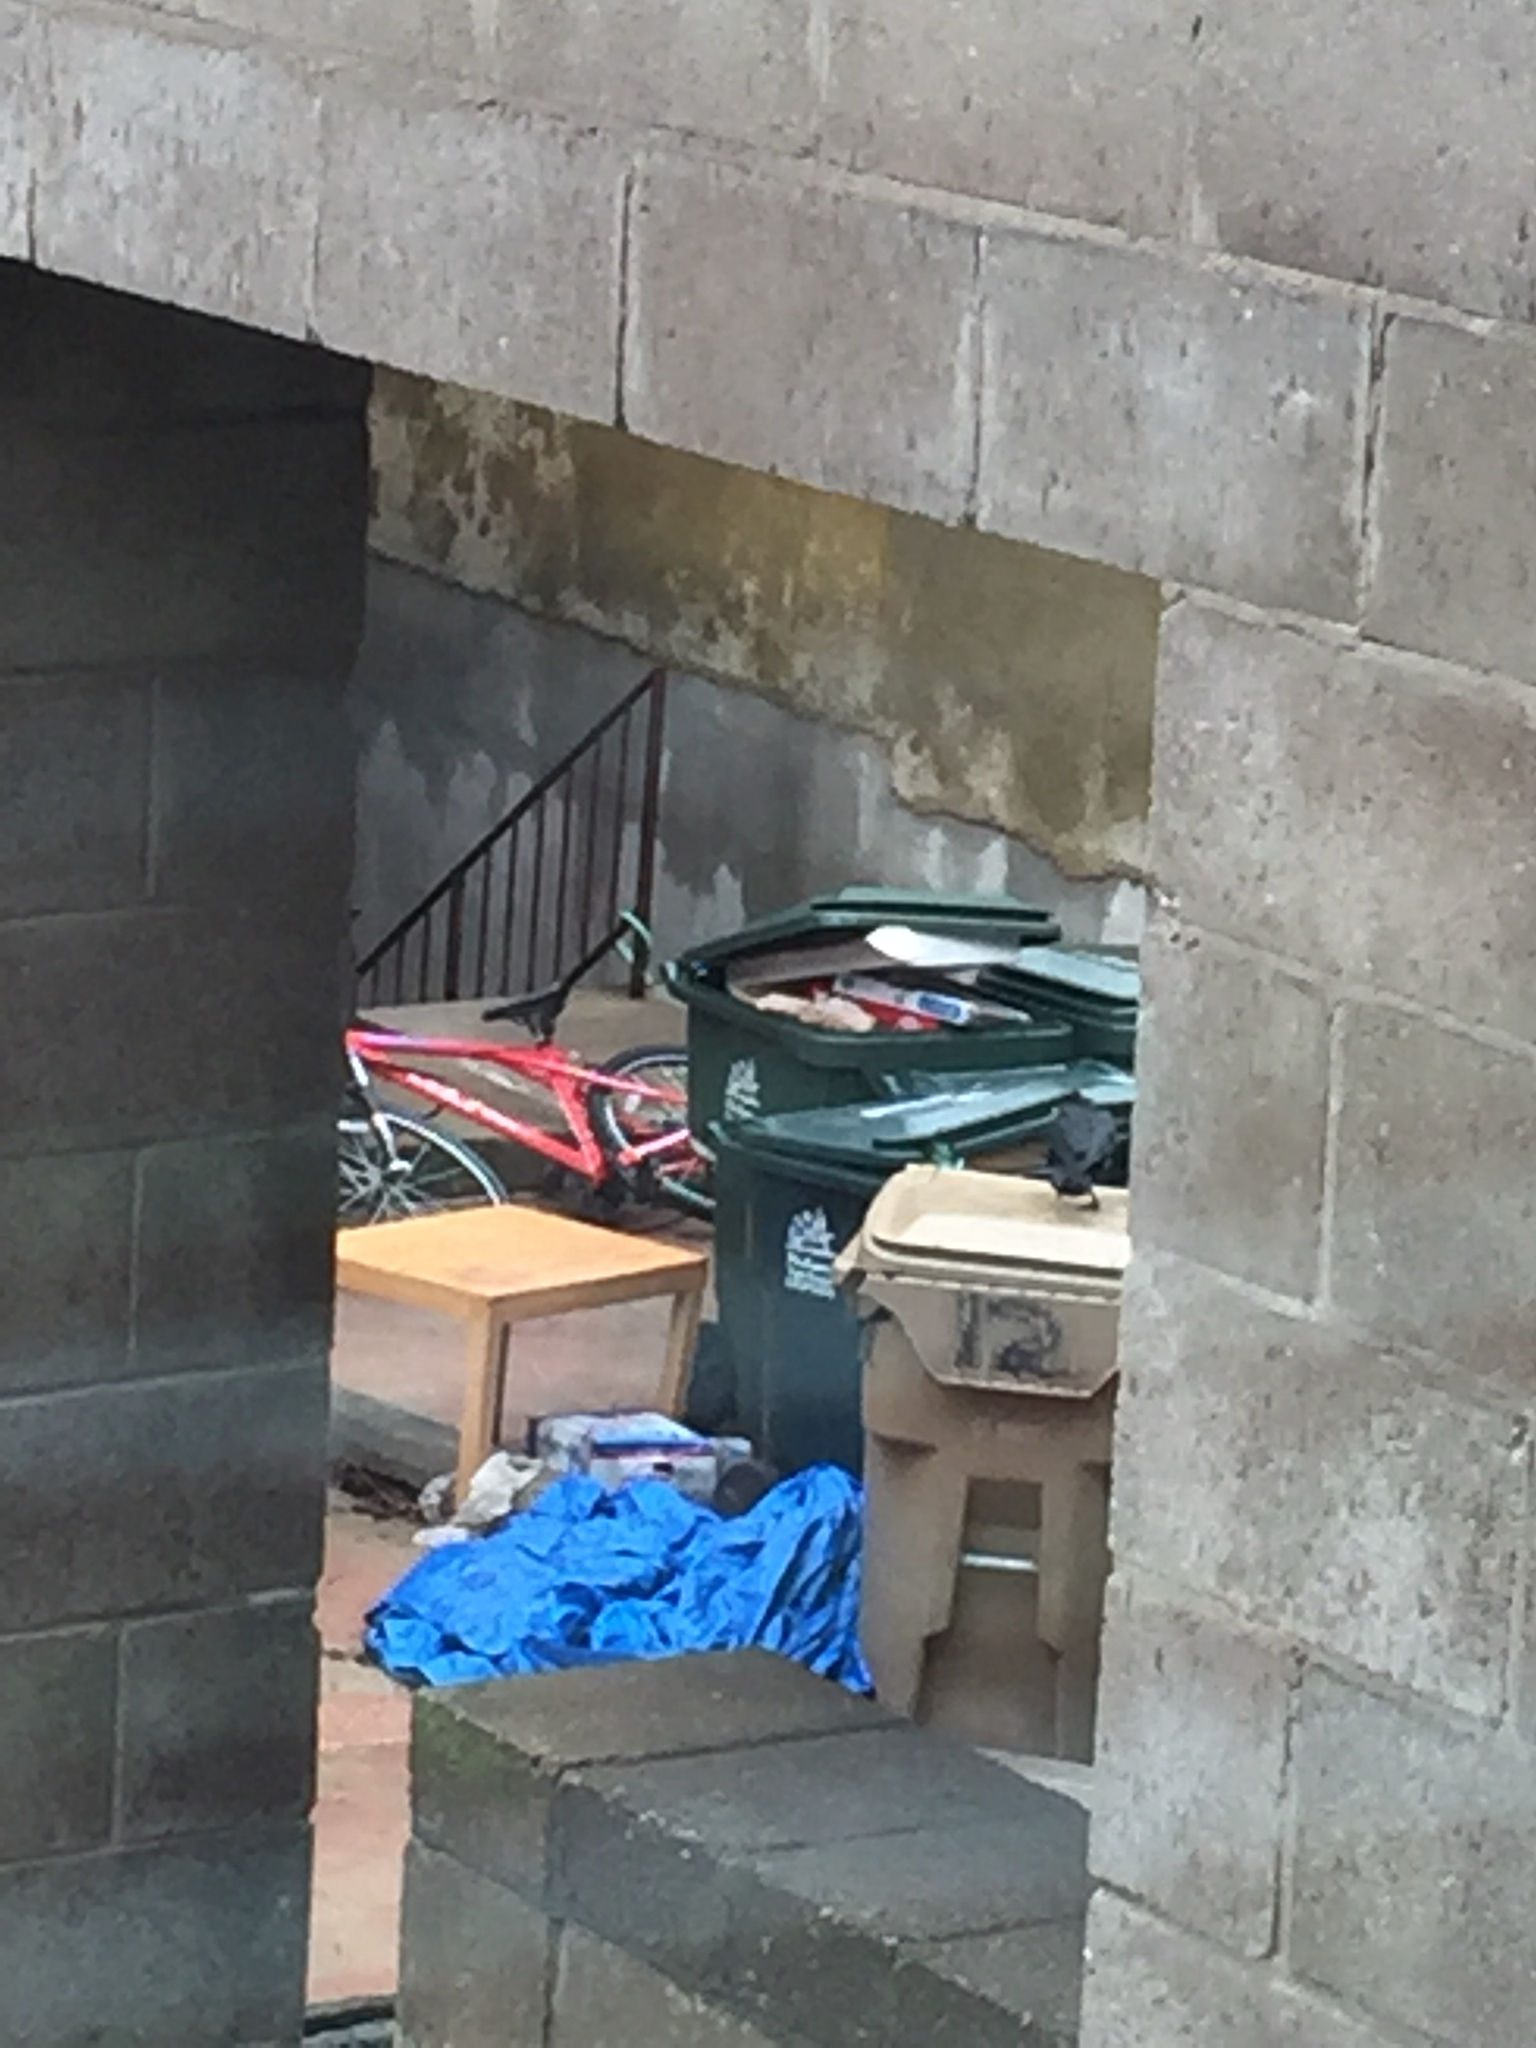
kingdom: Animalia
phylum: Chordata
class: Aves
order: Passeriformes
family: Corvidae
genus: Corvus
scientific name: Corvus brachyrhynchos
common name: American crow
